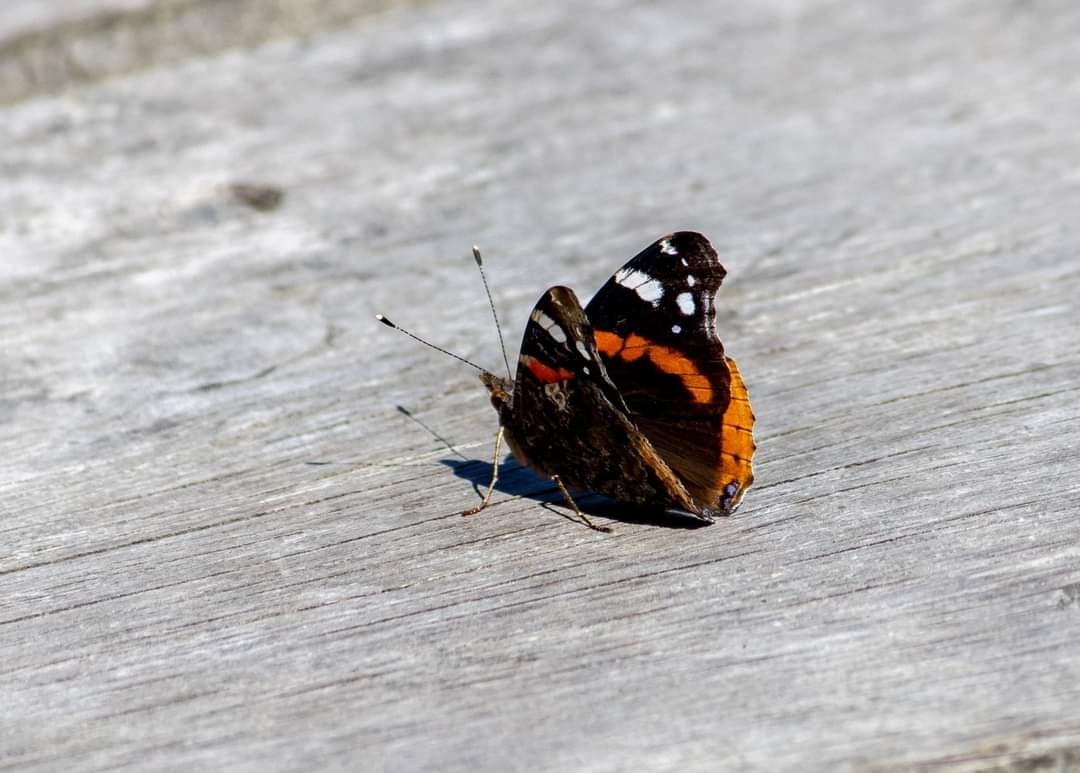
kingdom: Animalia
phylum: Arthropoda
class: Insecta
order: Lepidoptera
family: Nymphalidae
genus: Vanessa
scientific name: Vanessa atalanta
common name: Red admiral
